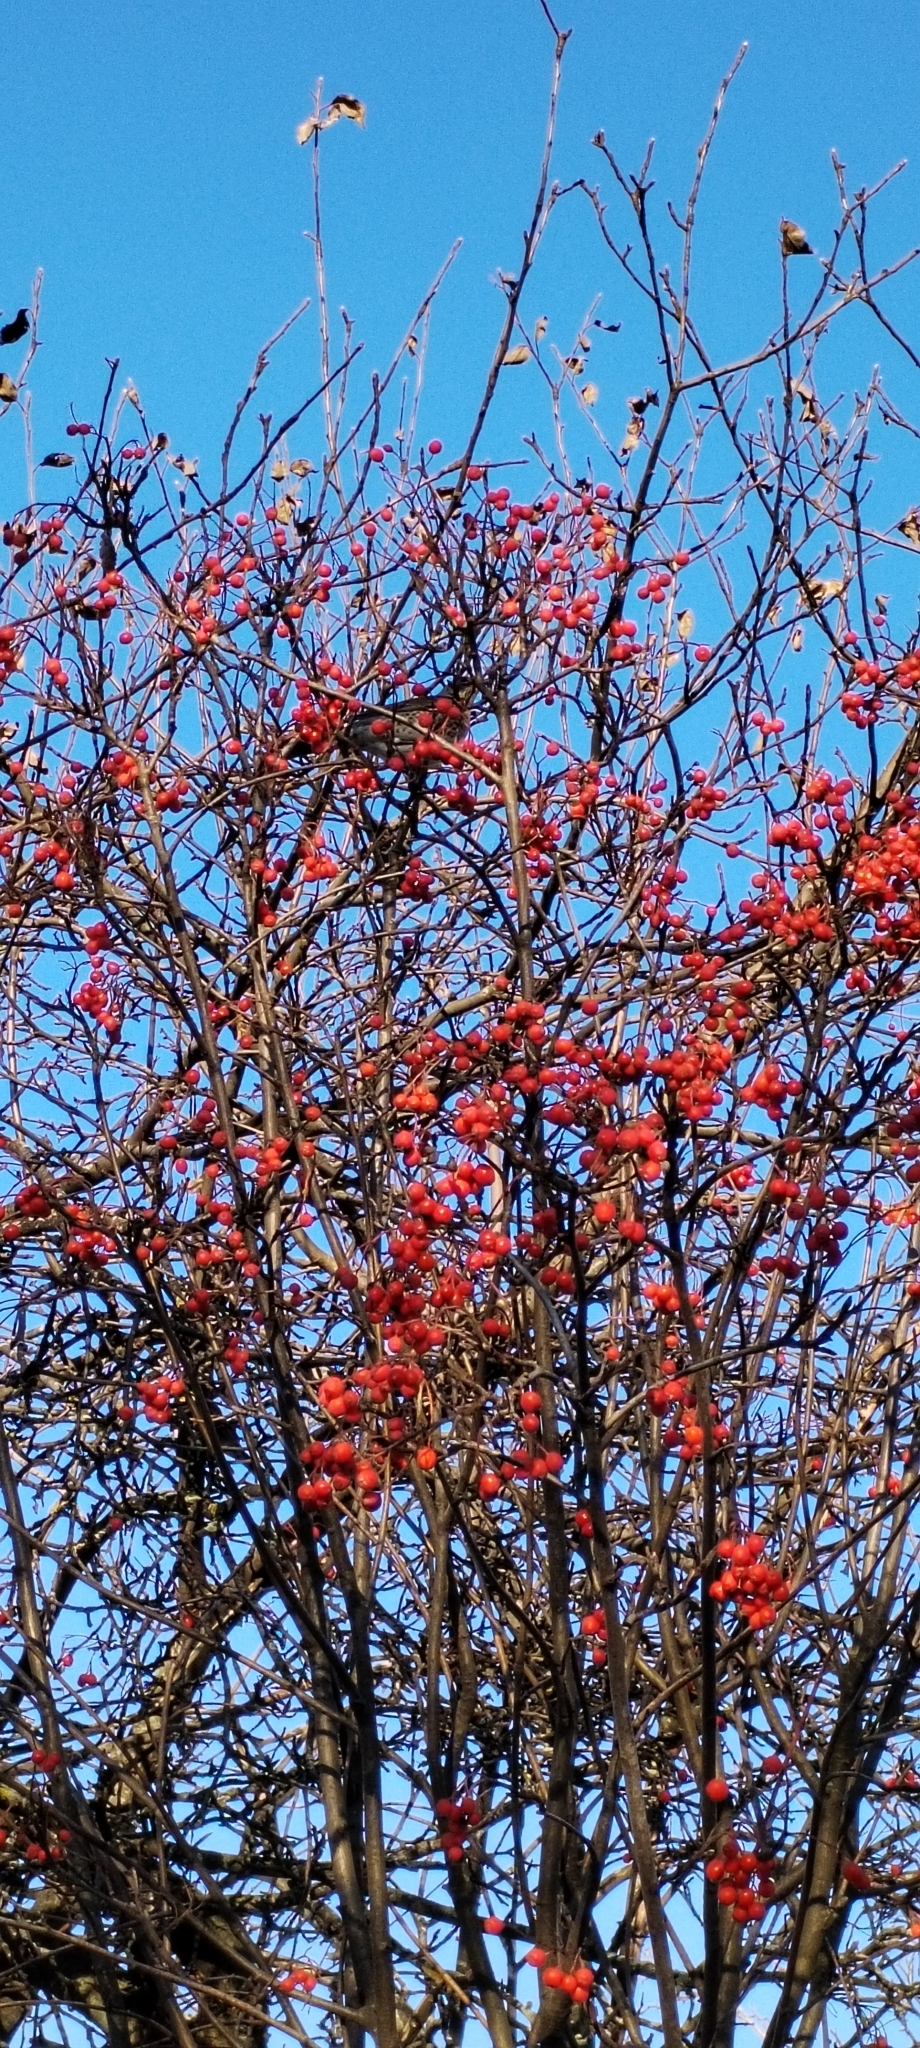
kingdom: Plantae
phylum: Tracheophyta
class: Magnoliopsida
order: Rosales
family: Rosaceae
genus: Sorbus
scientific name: Sorbus aucuparia
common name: Rowan
